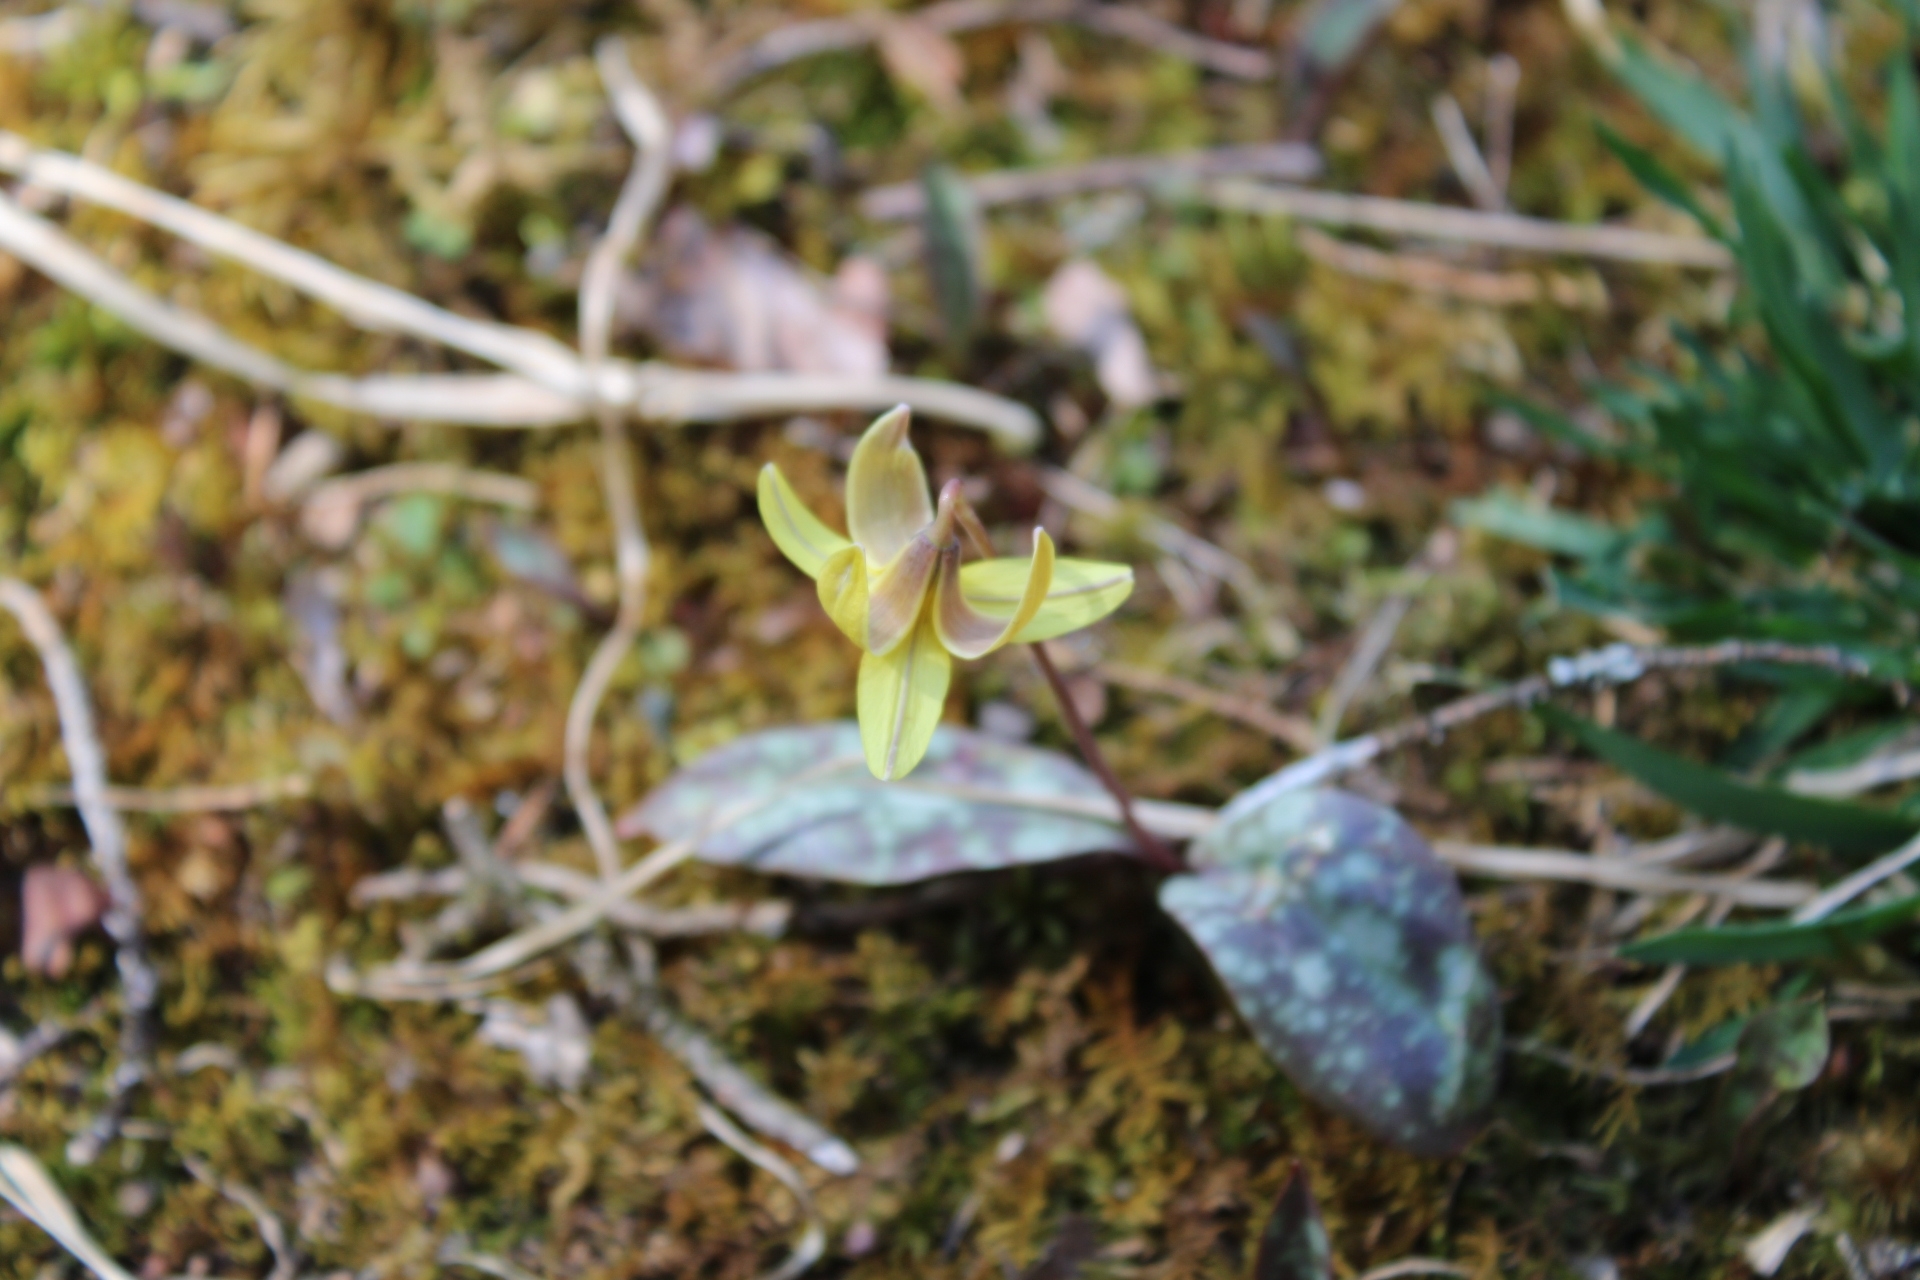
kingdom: Plantae
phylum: Tracheophyta
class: Liliopsida
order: Liliales
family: Liliaceae
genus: Erythronium
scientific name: Erythronium americanum
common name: Yellow adder's-tongue
